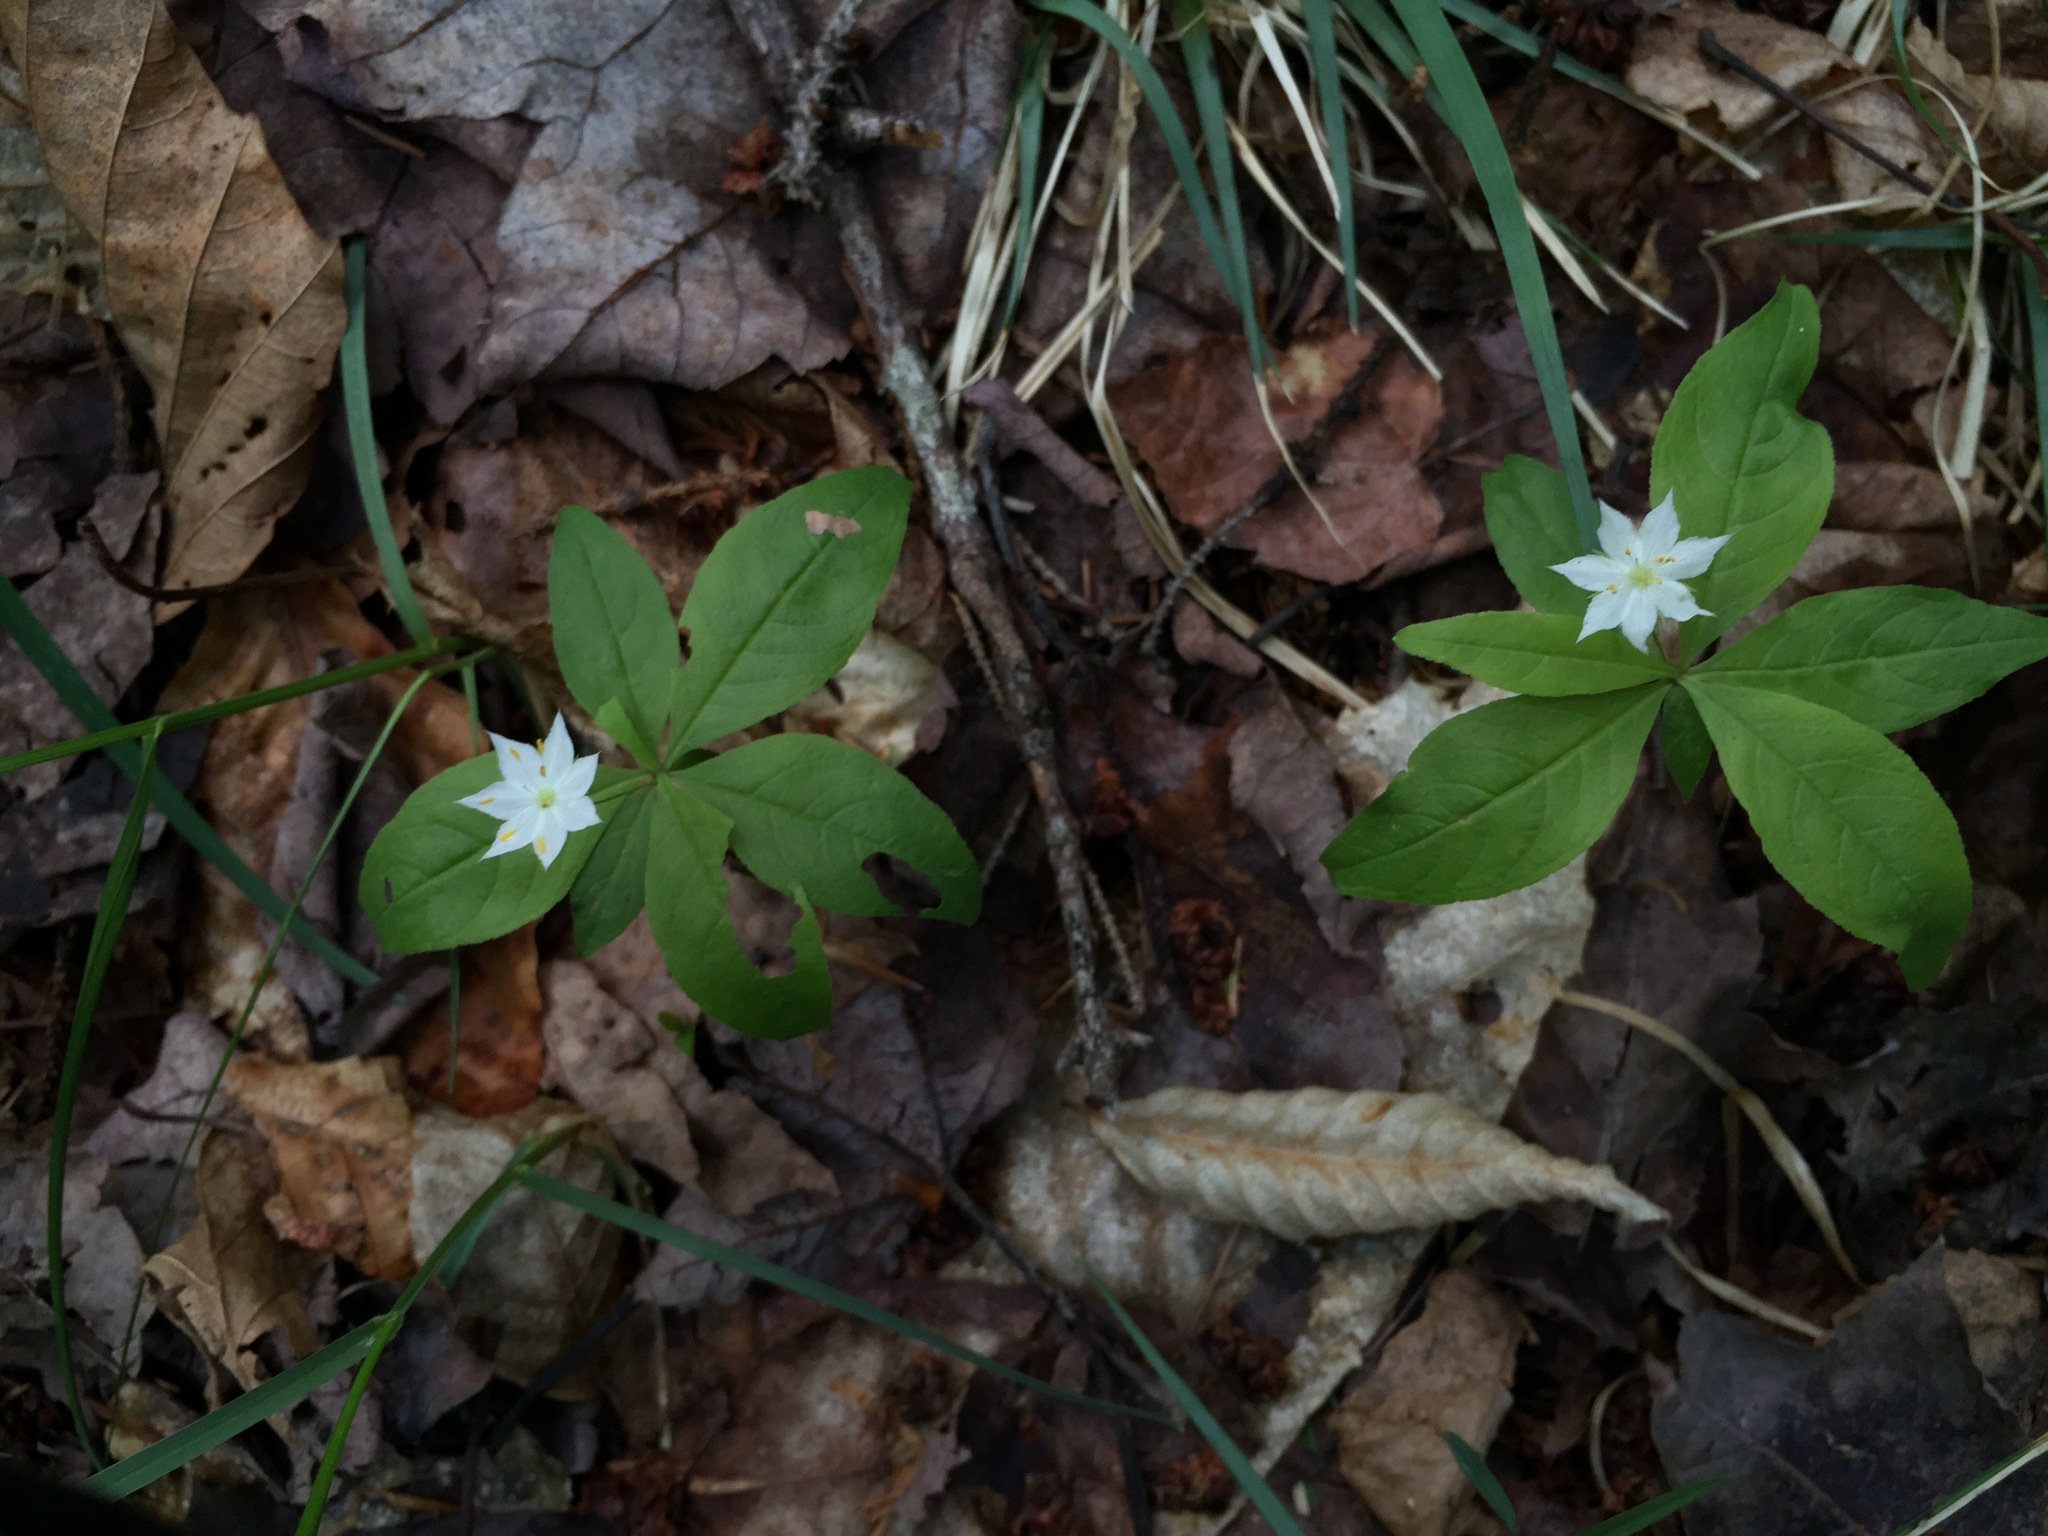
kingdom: Plantae
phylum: Tracheophyta
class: Magnoliopsida
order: Ericales
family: Primulaceae
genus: Lysimachia
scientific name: Lysimachia borealis
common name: American starflower
